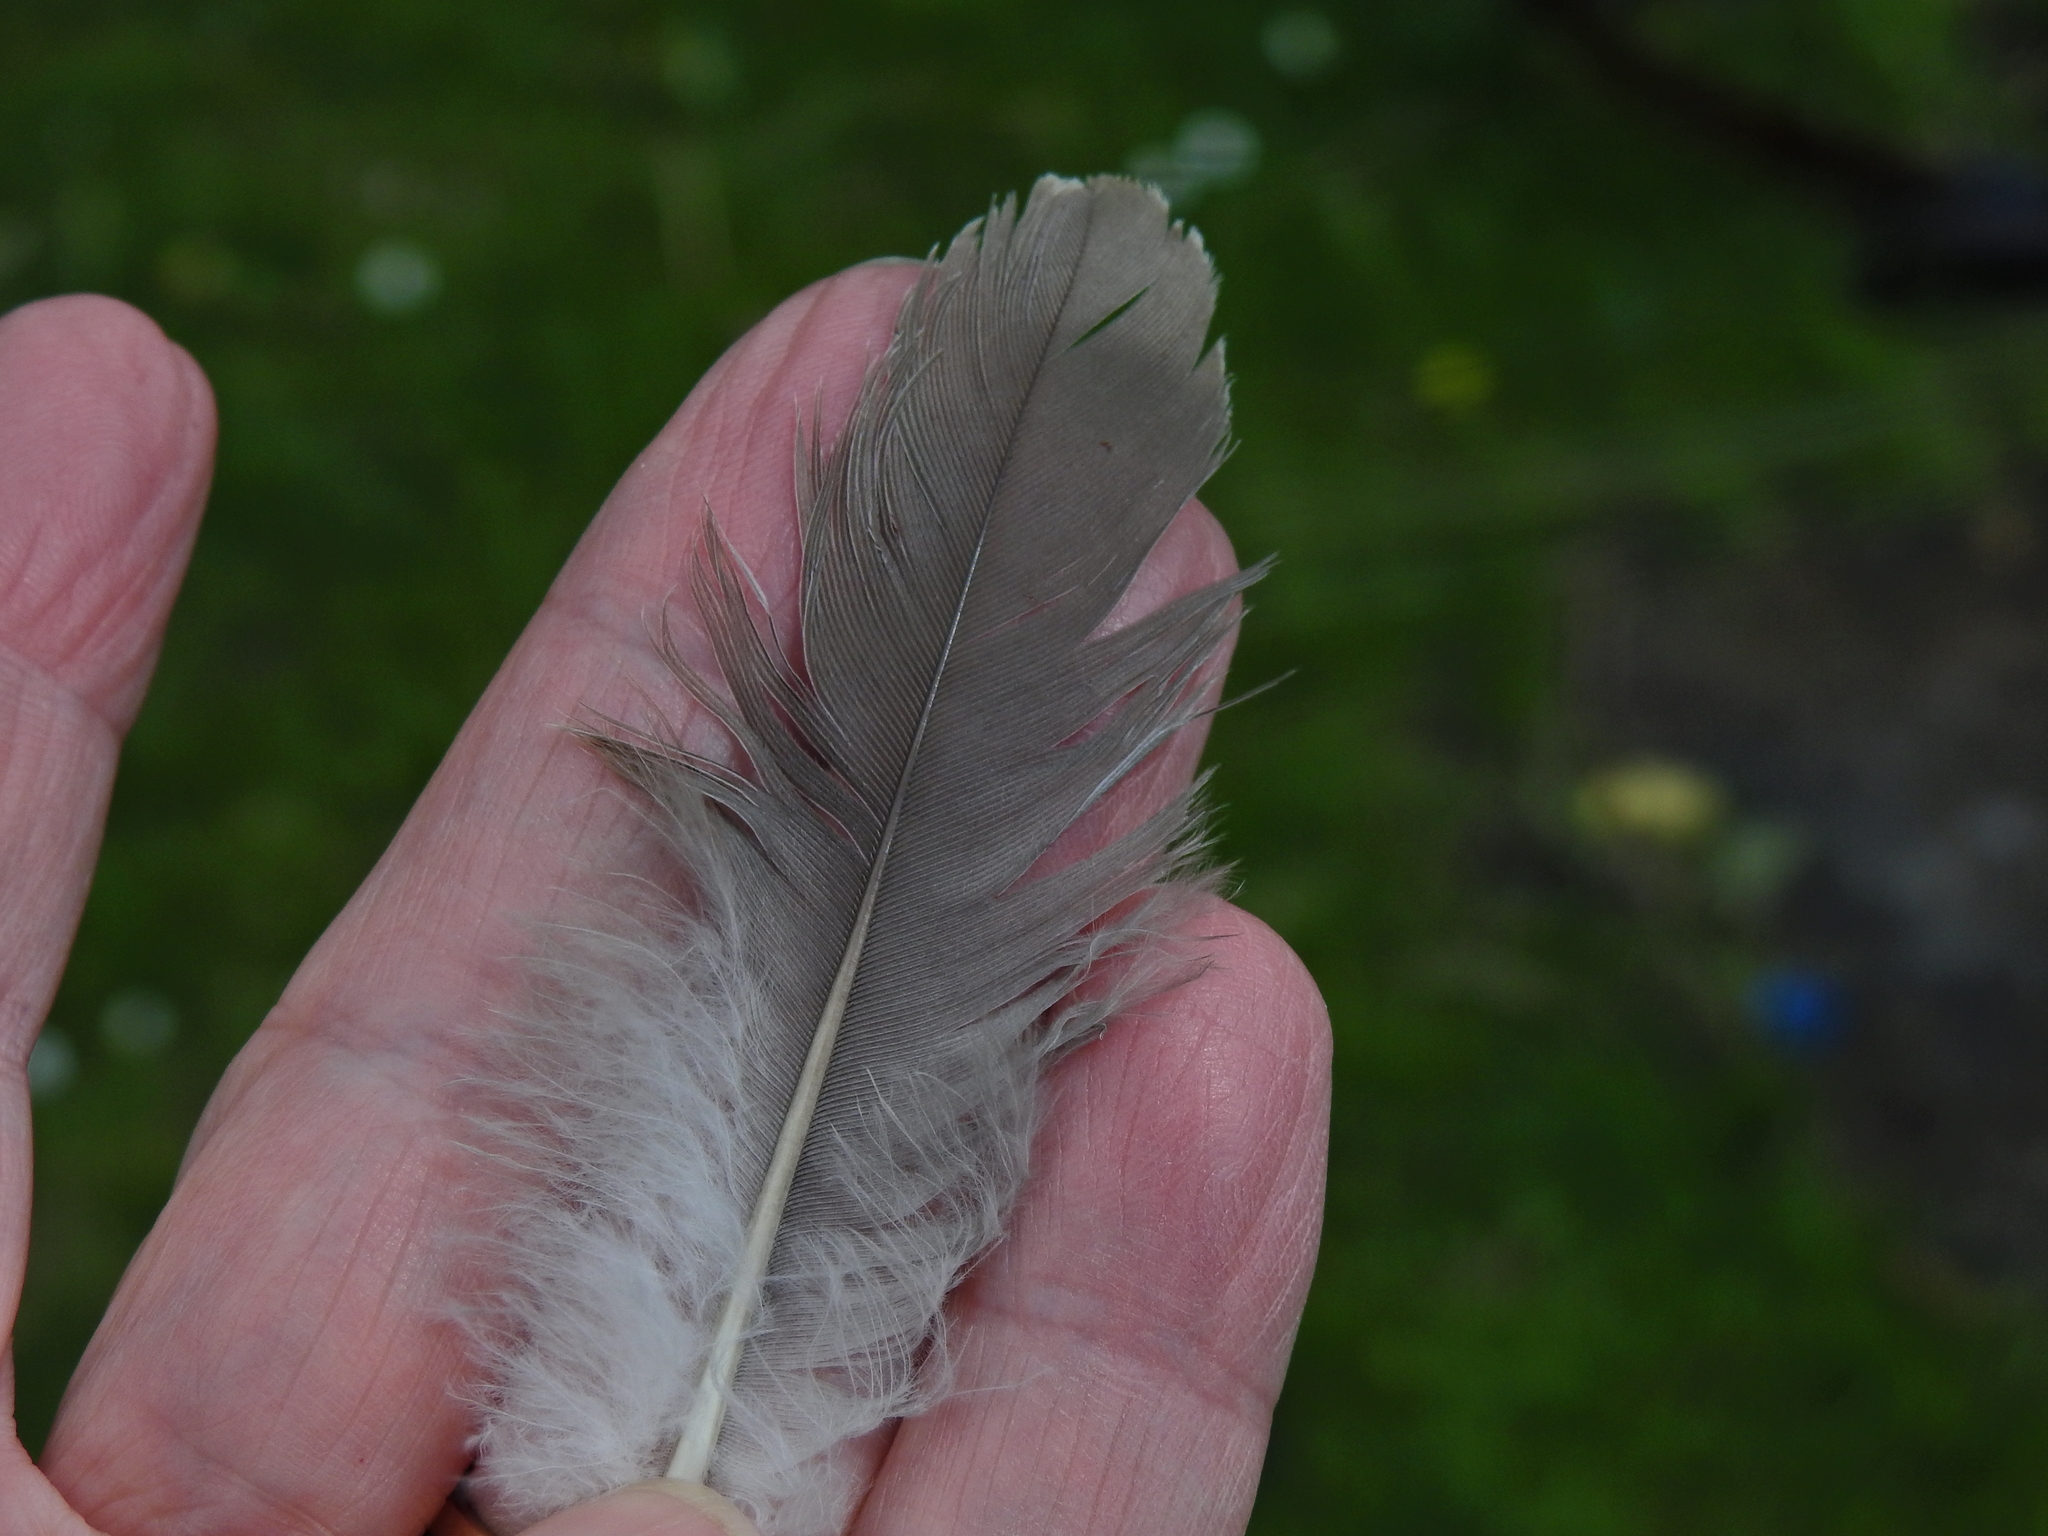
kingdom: Animalia
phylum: Chordata
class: Aves
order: Columbiformes
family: Columbidae
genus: Columba
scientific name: Columba palumbus
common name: Common wood pigeon
